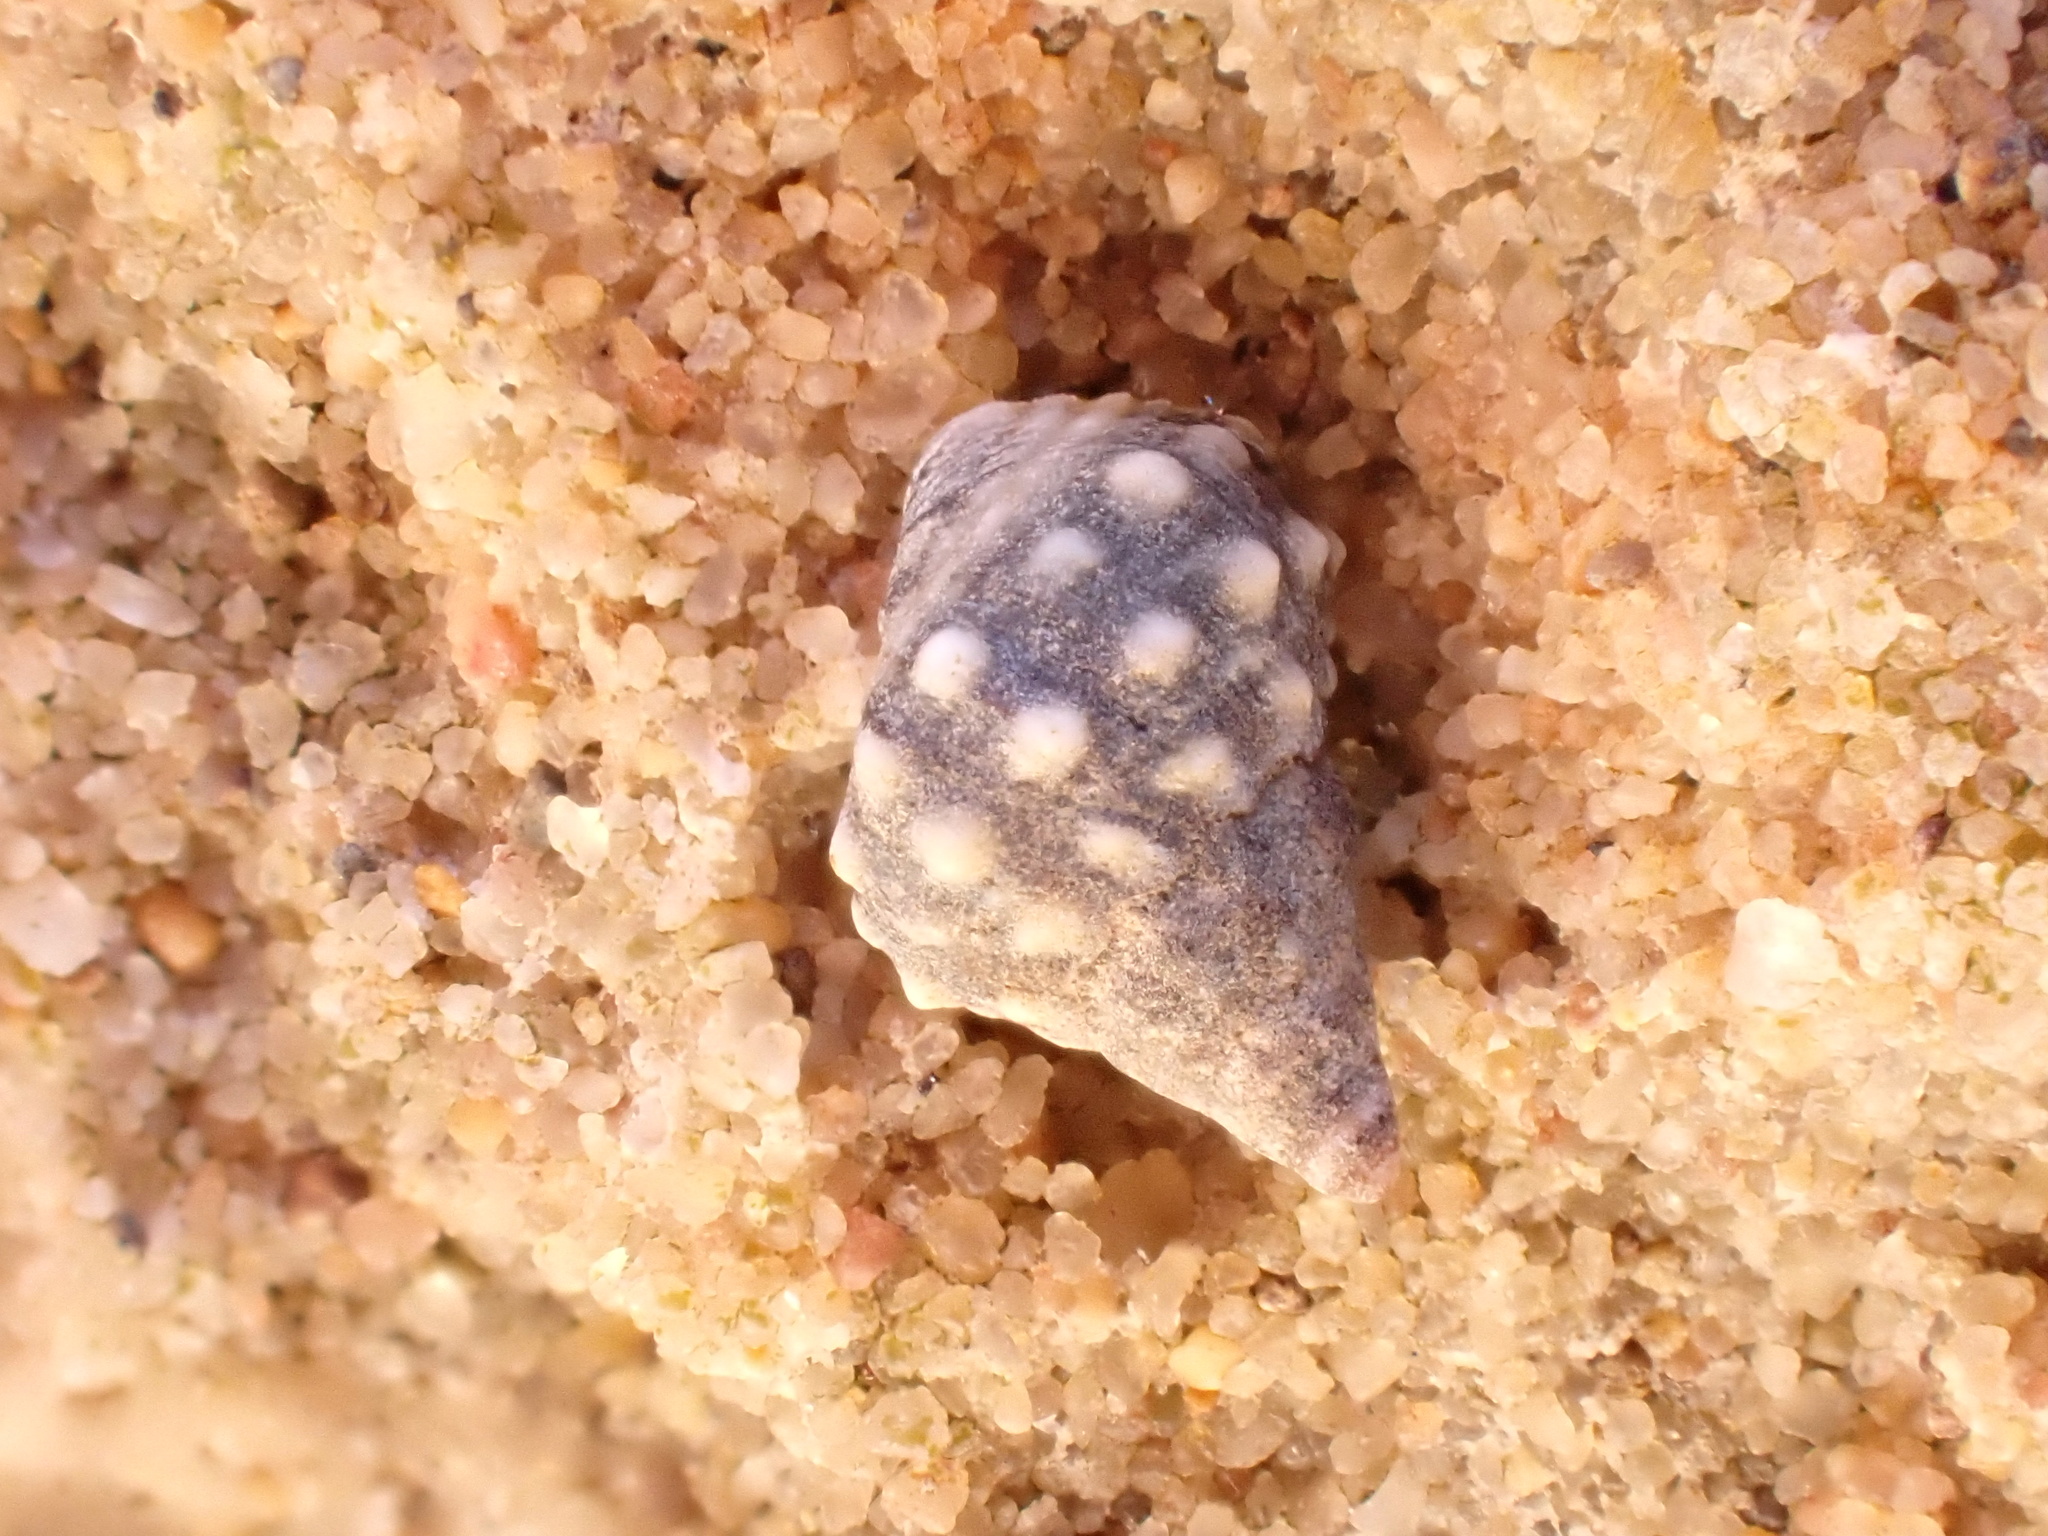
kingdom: Animalia
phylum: Mollusca
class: Gastropoda
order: Littorinimorpha
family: Littorinidae
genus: Echinolittorina
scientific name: Echinolittorina natalensis
